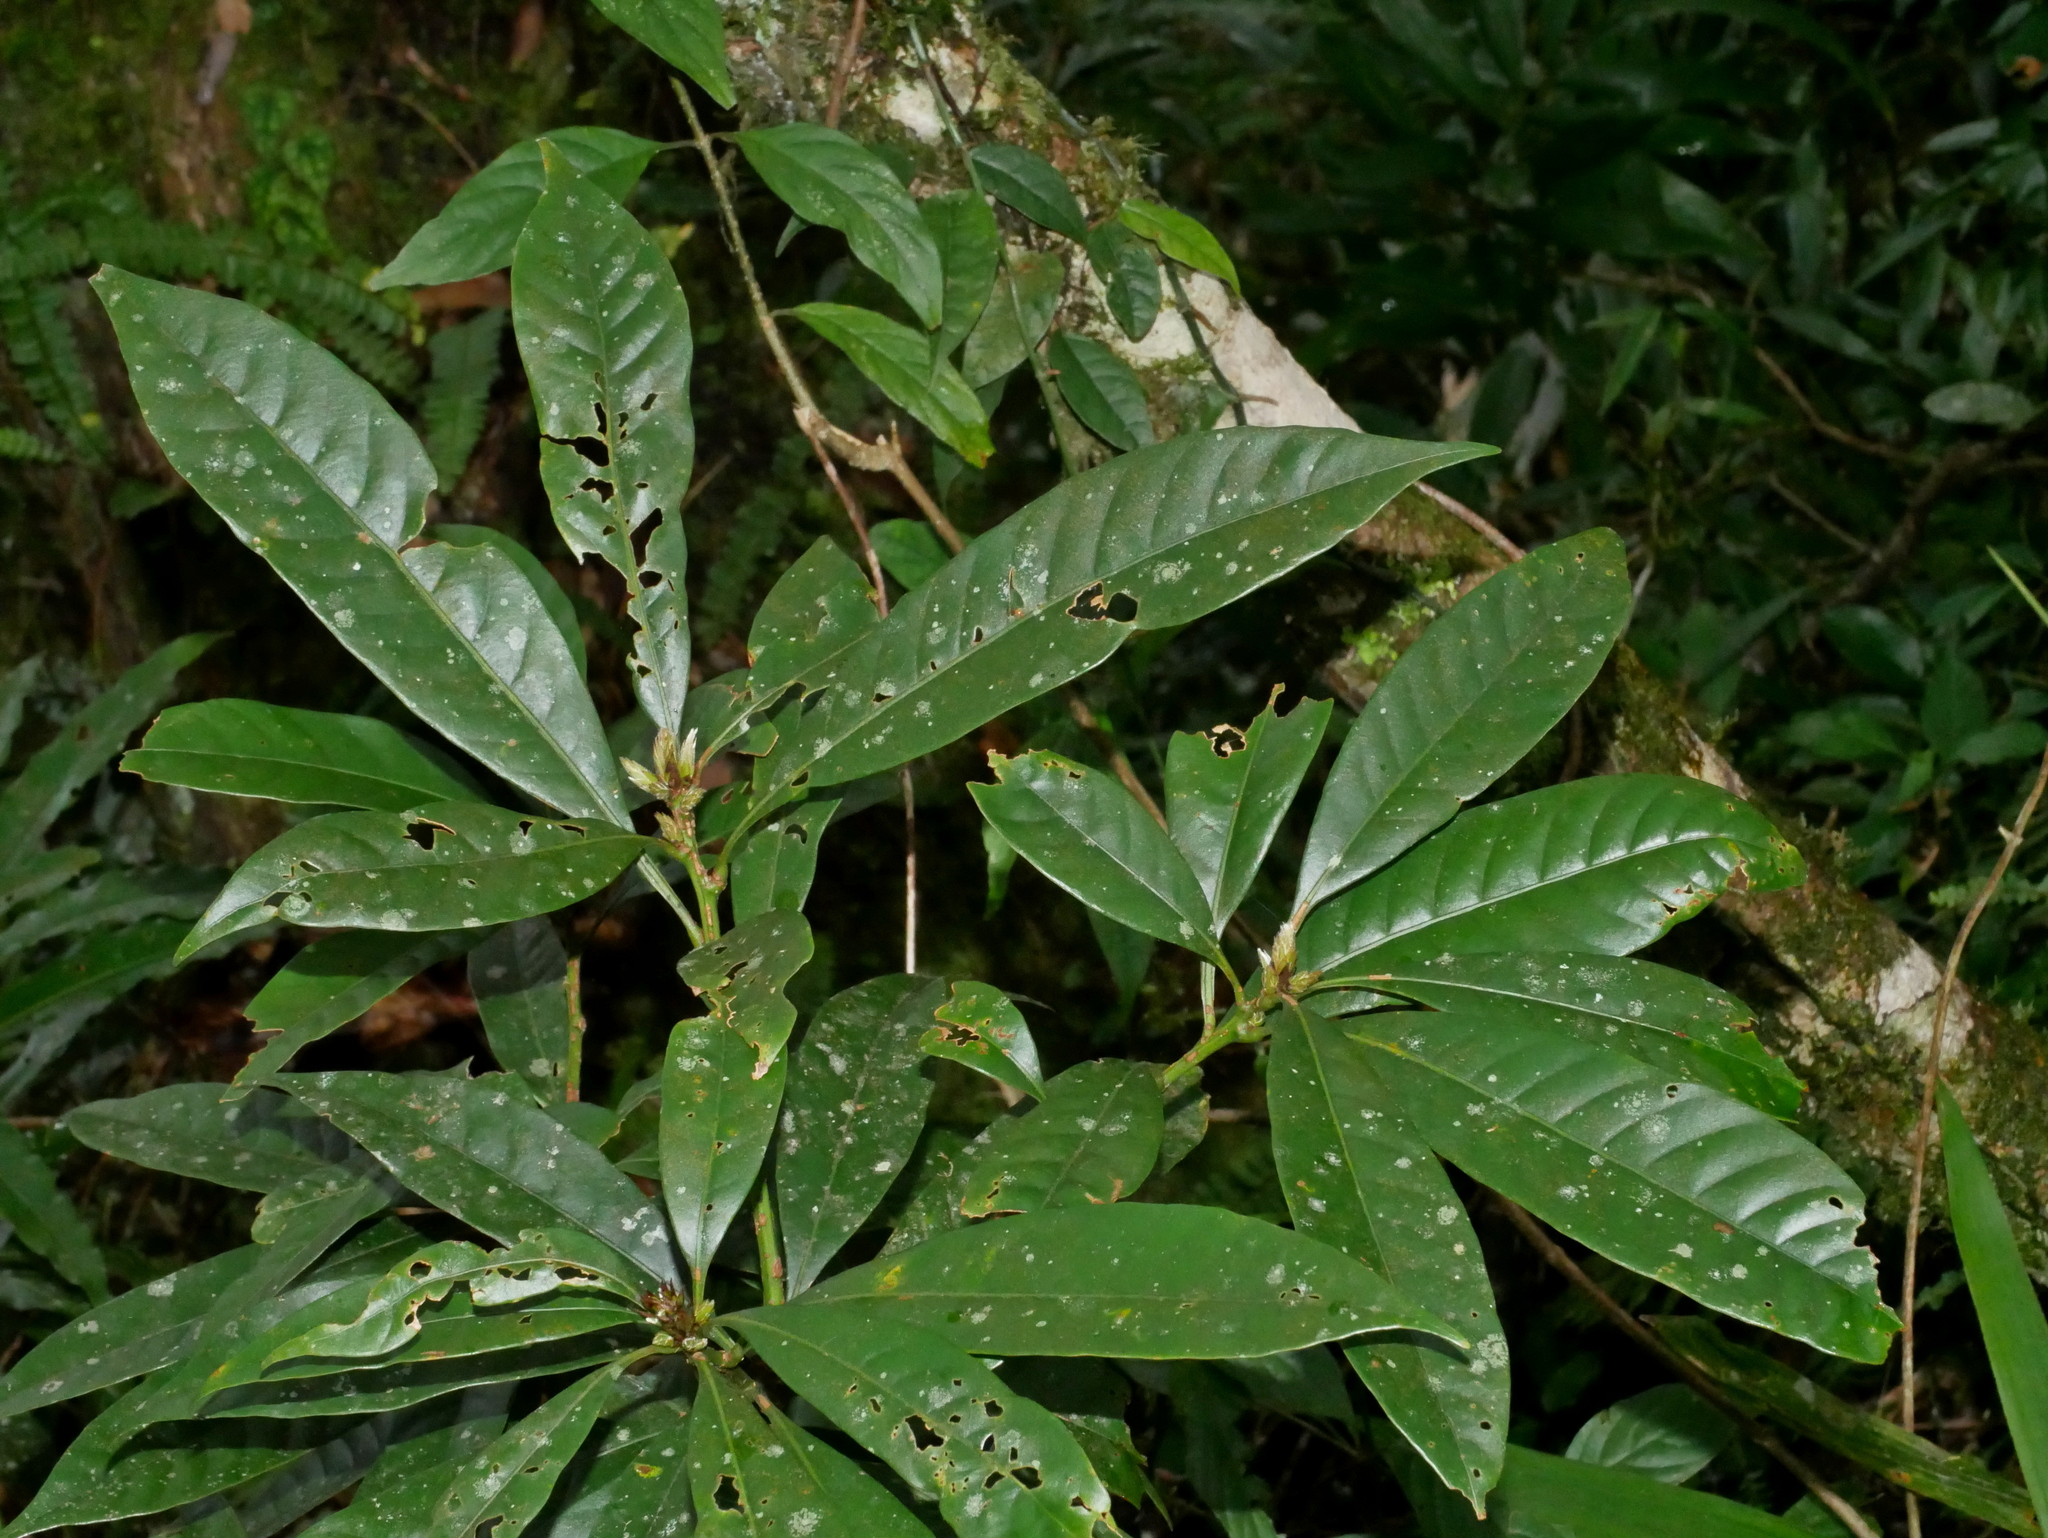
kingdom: Plantae
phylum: Tracheophyta
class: Magnoliopsida
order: Fagales
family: Fagaceae
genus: Lithocarpus
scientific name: Lithocarpus brevicaudatus
